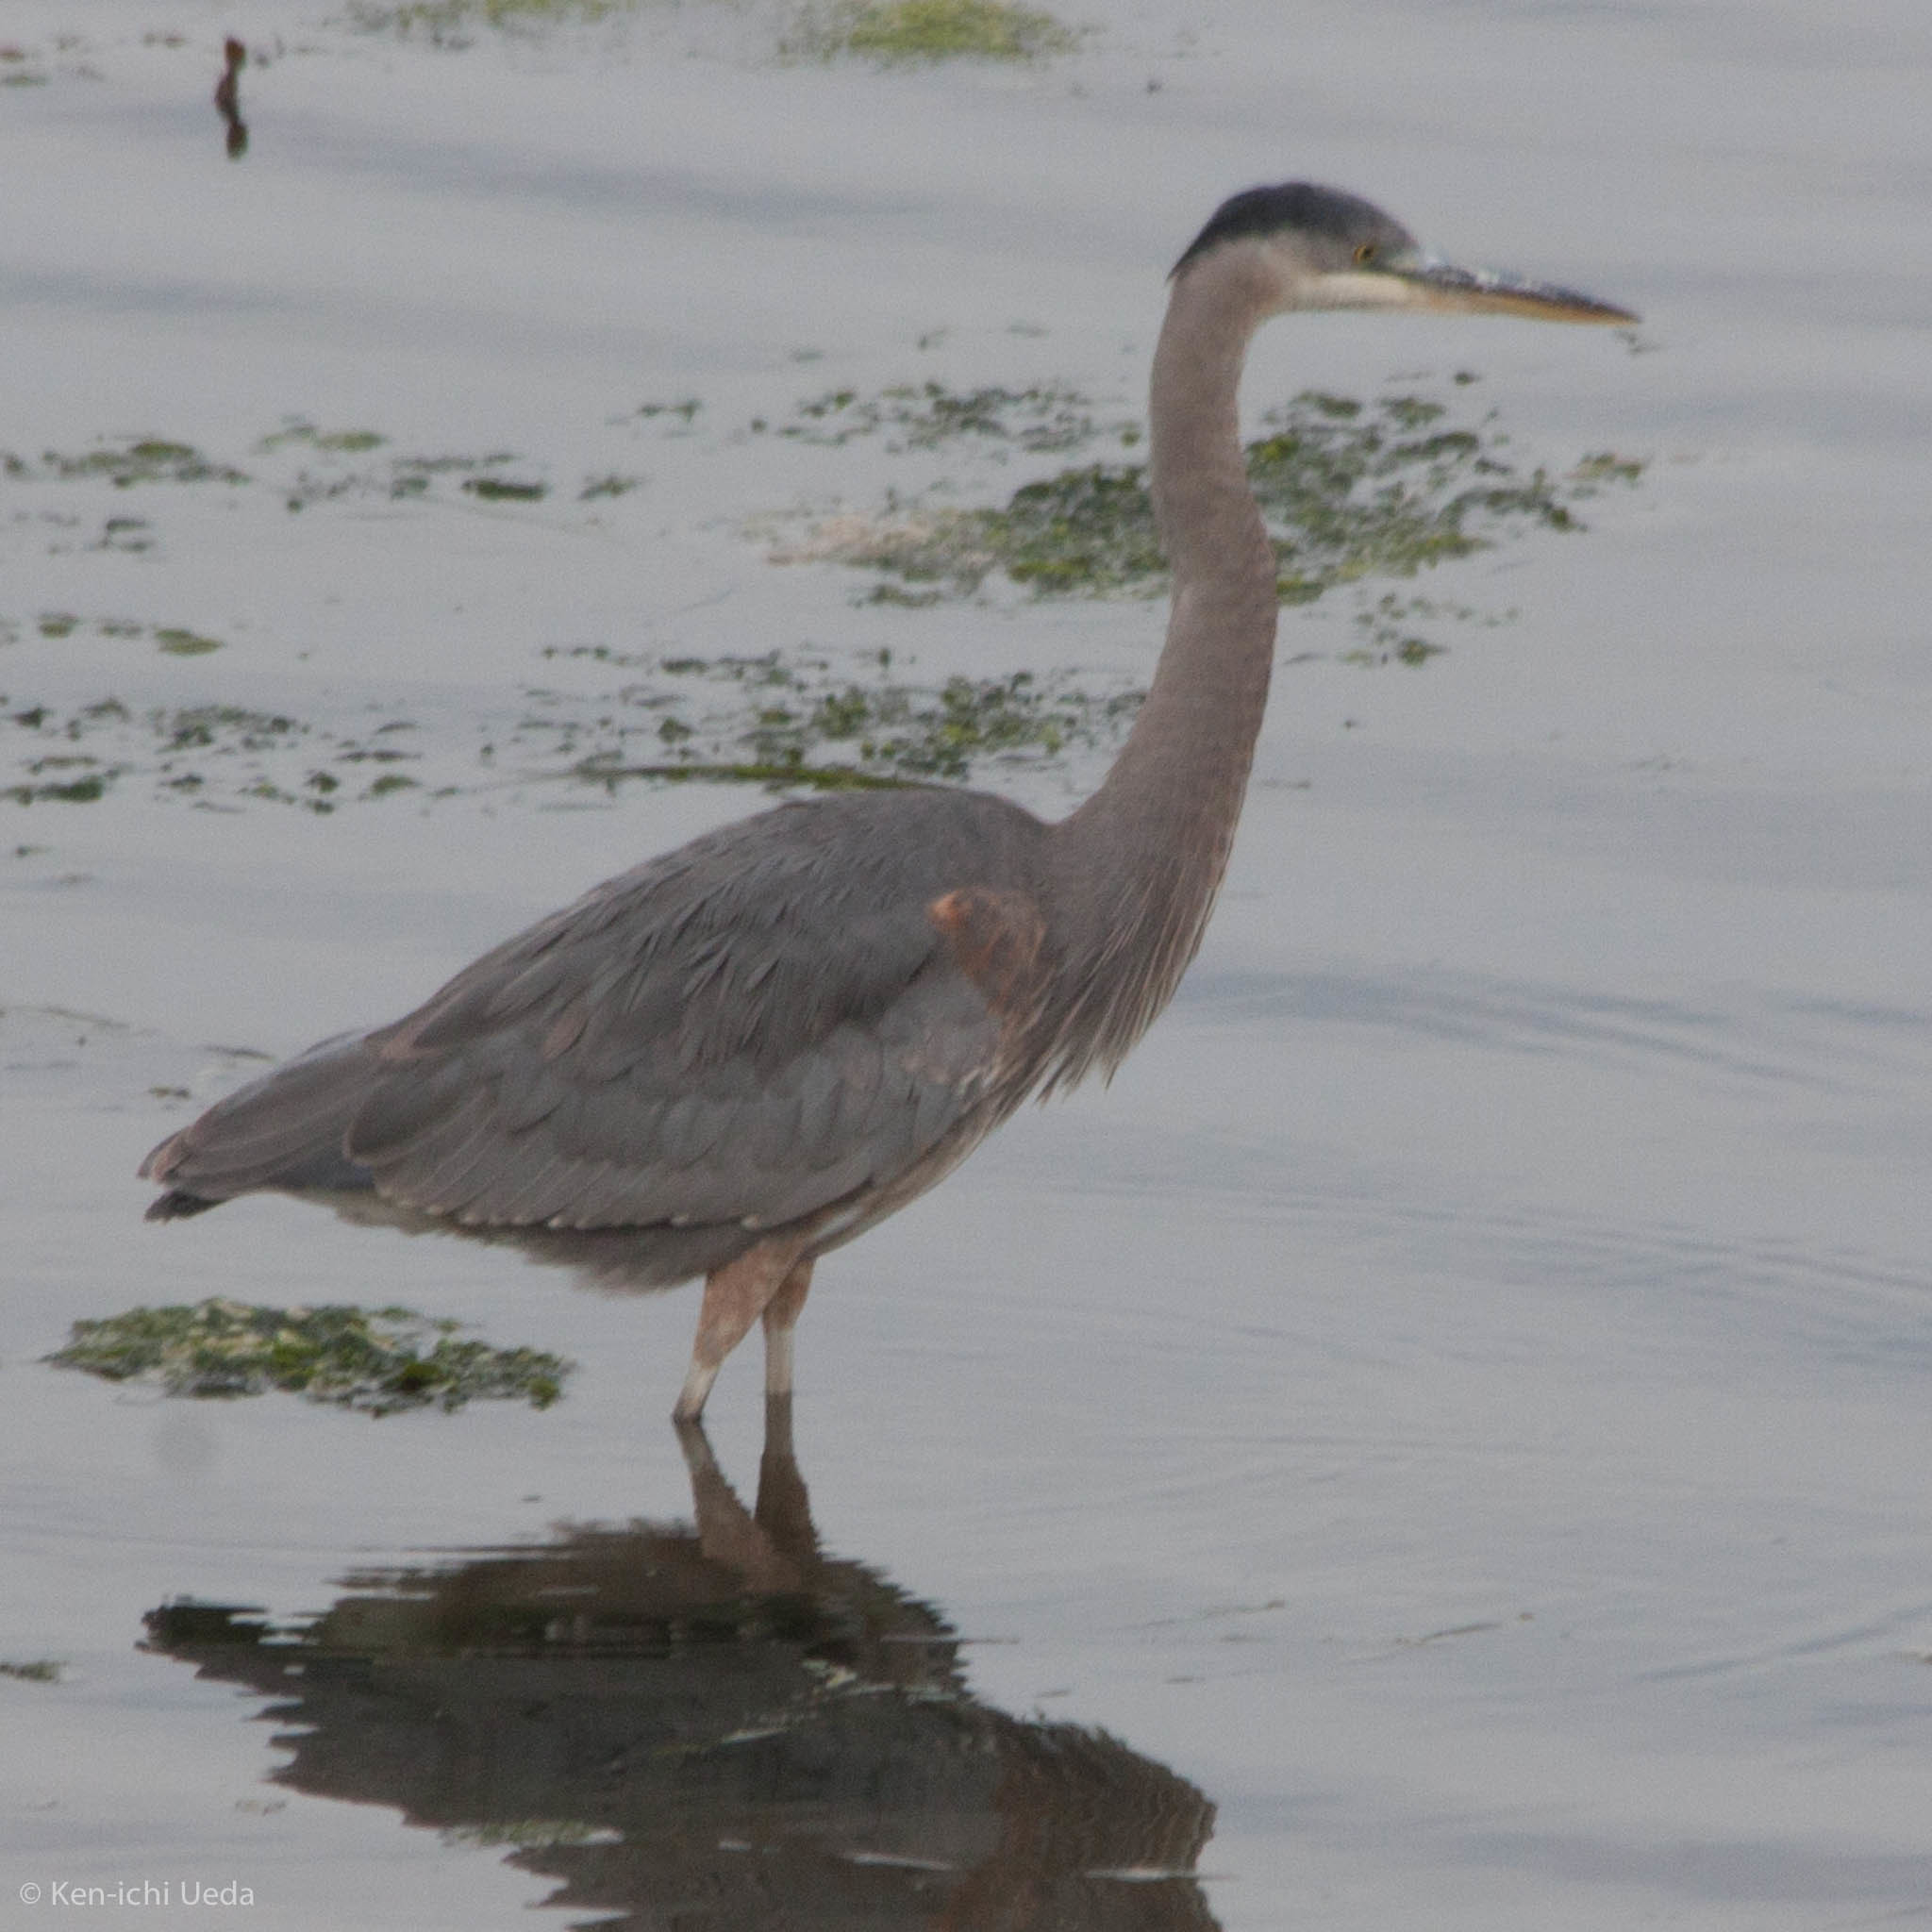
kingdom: Animalia
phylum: Chordata
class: Aves
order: Pelecaniformes
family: Ardeidae
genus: Ardea
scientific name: Ardea herodias
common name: Great blue heron
